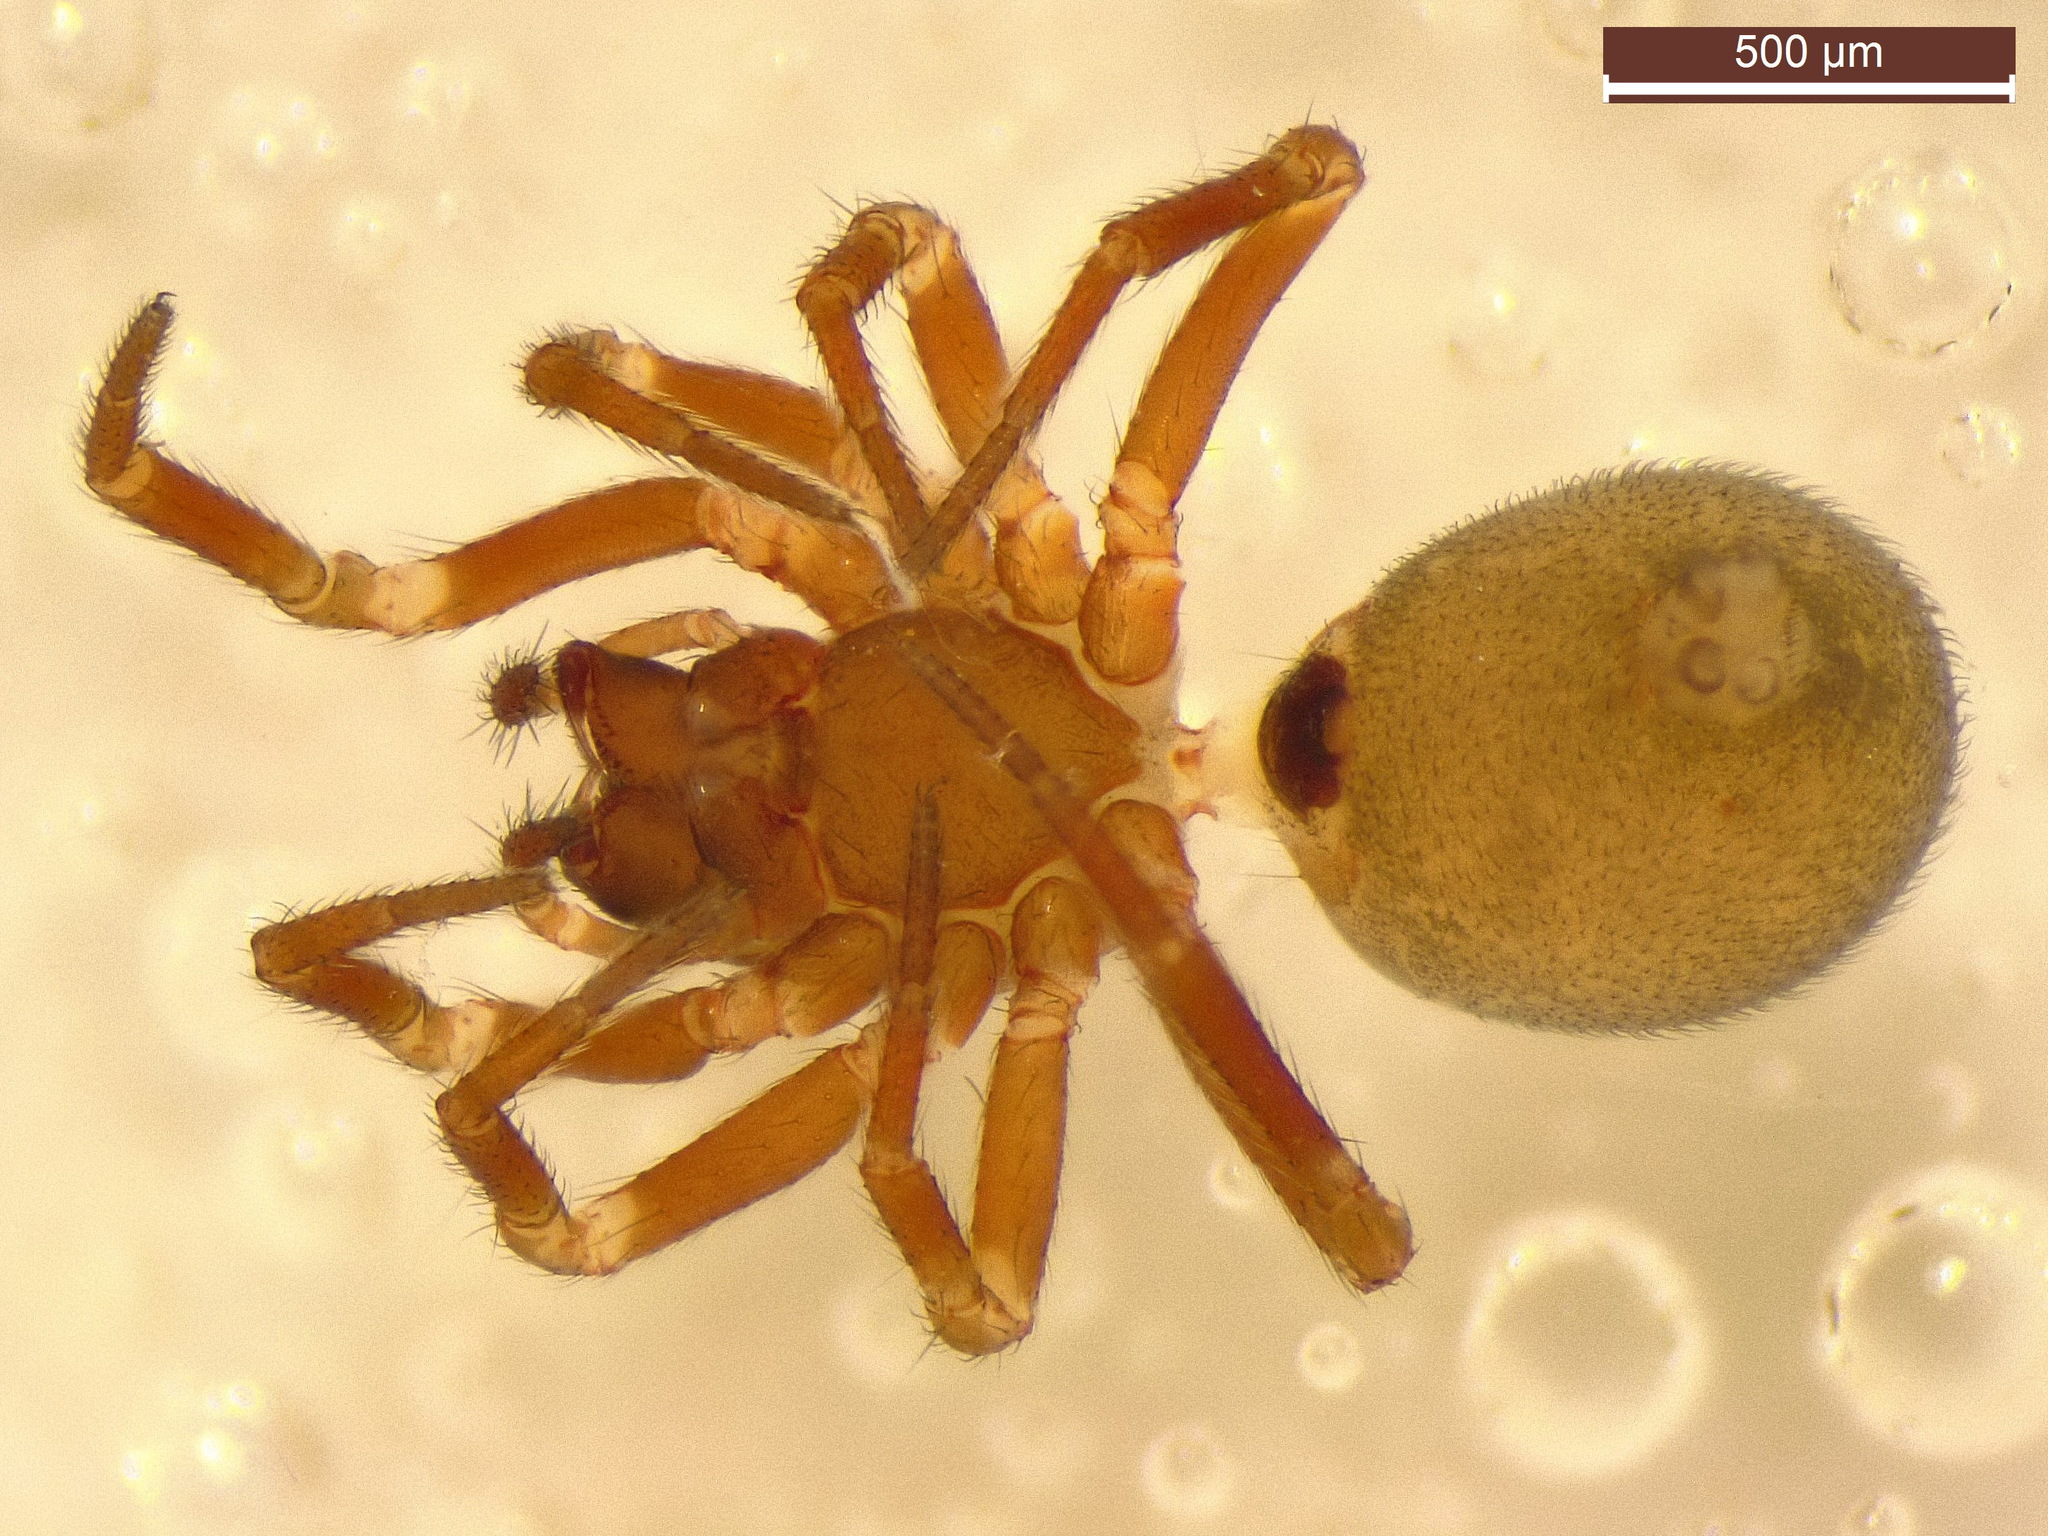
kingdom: Animalia
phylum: Arthropoda
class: Arachnida
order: Araneae
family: Linyphiidae
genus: Tapinocyba
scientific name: Tapinocyba pallens
